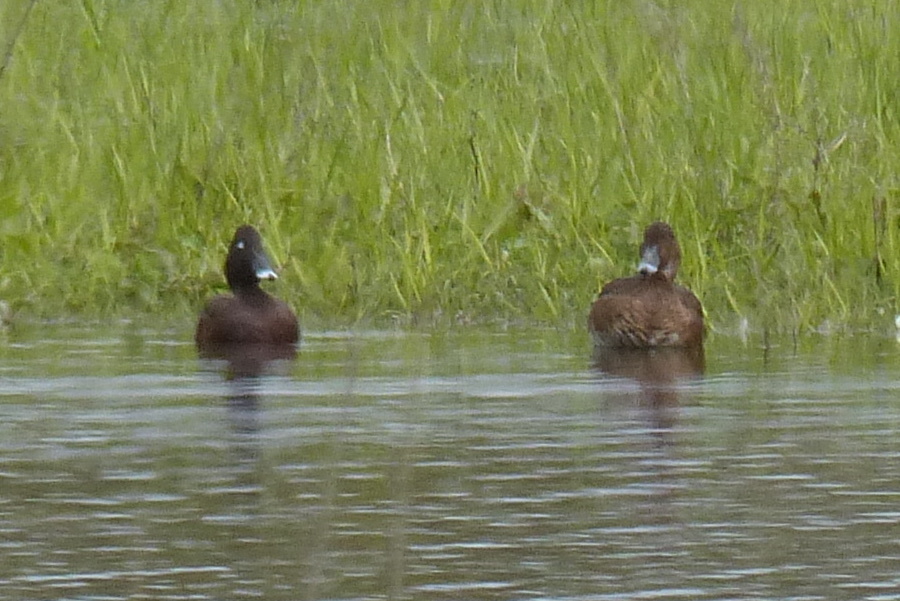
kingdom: Animalia
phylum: Chordata
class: Aves
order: Anseriformes
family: Anatidae
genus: Aythya
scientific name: Aythya australis
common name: Hardhead
